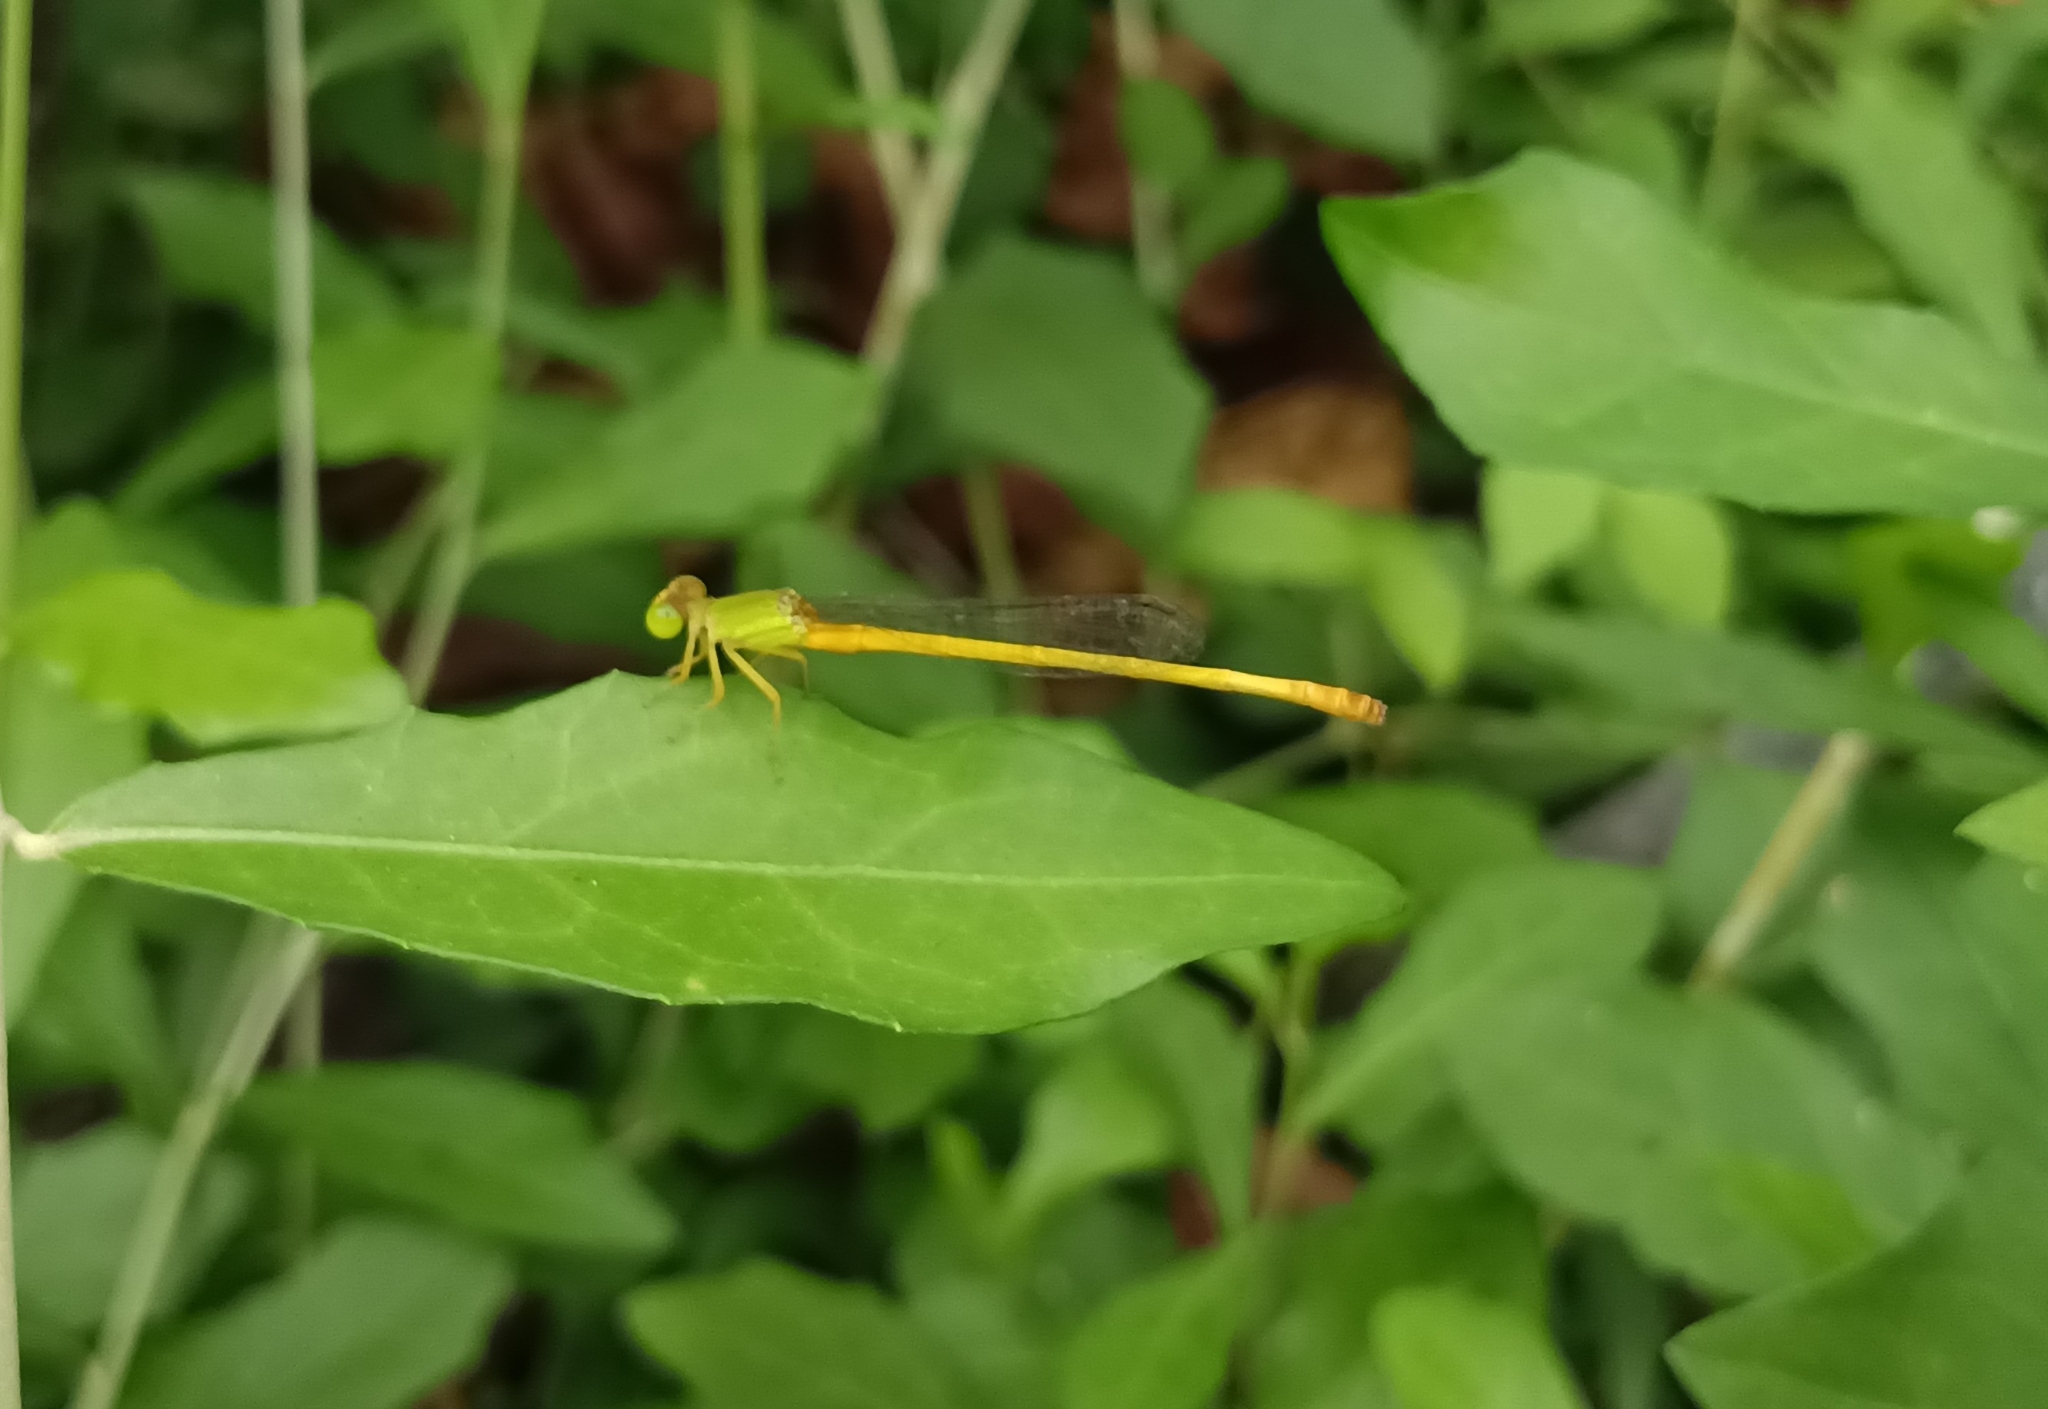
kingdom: Animalia
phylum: Arthropoda
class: Insecta
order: Odonata
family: Coenagrionidae
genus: Ceriagrion
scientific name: Ceriagrion coromandelianum
